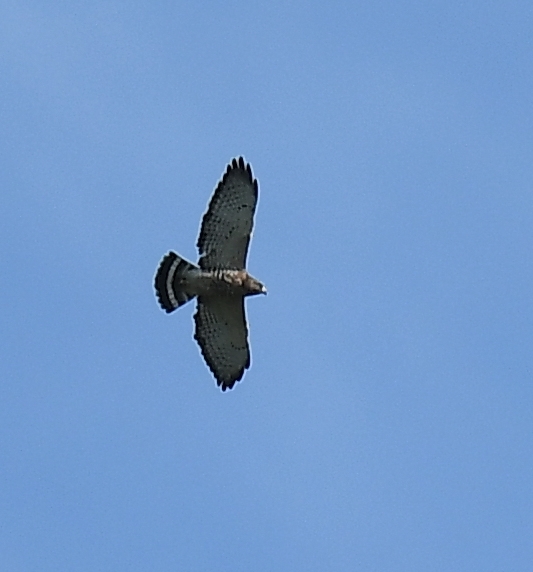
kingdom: Animalia
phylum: Chordata
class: Aves
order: Accipitriformes
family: Accipitridae
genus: Buteo
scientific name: Buteo platypterus
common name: Broad-winged hawk
